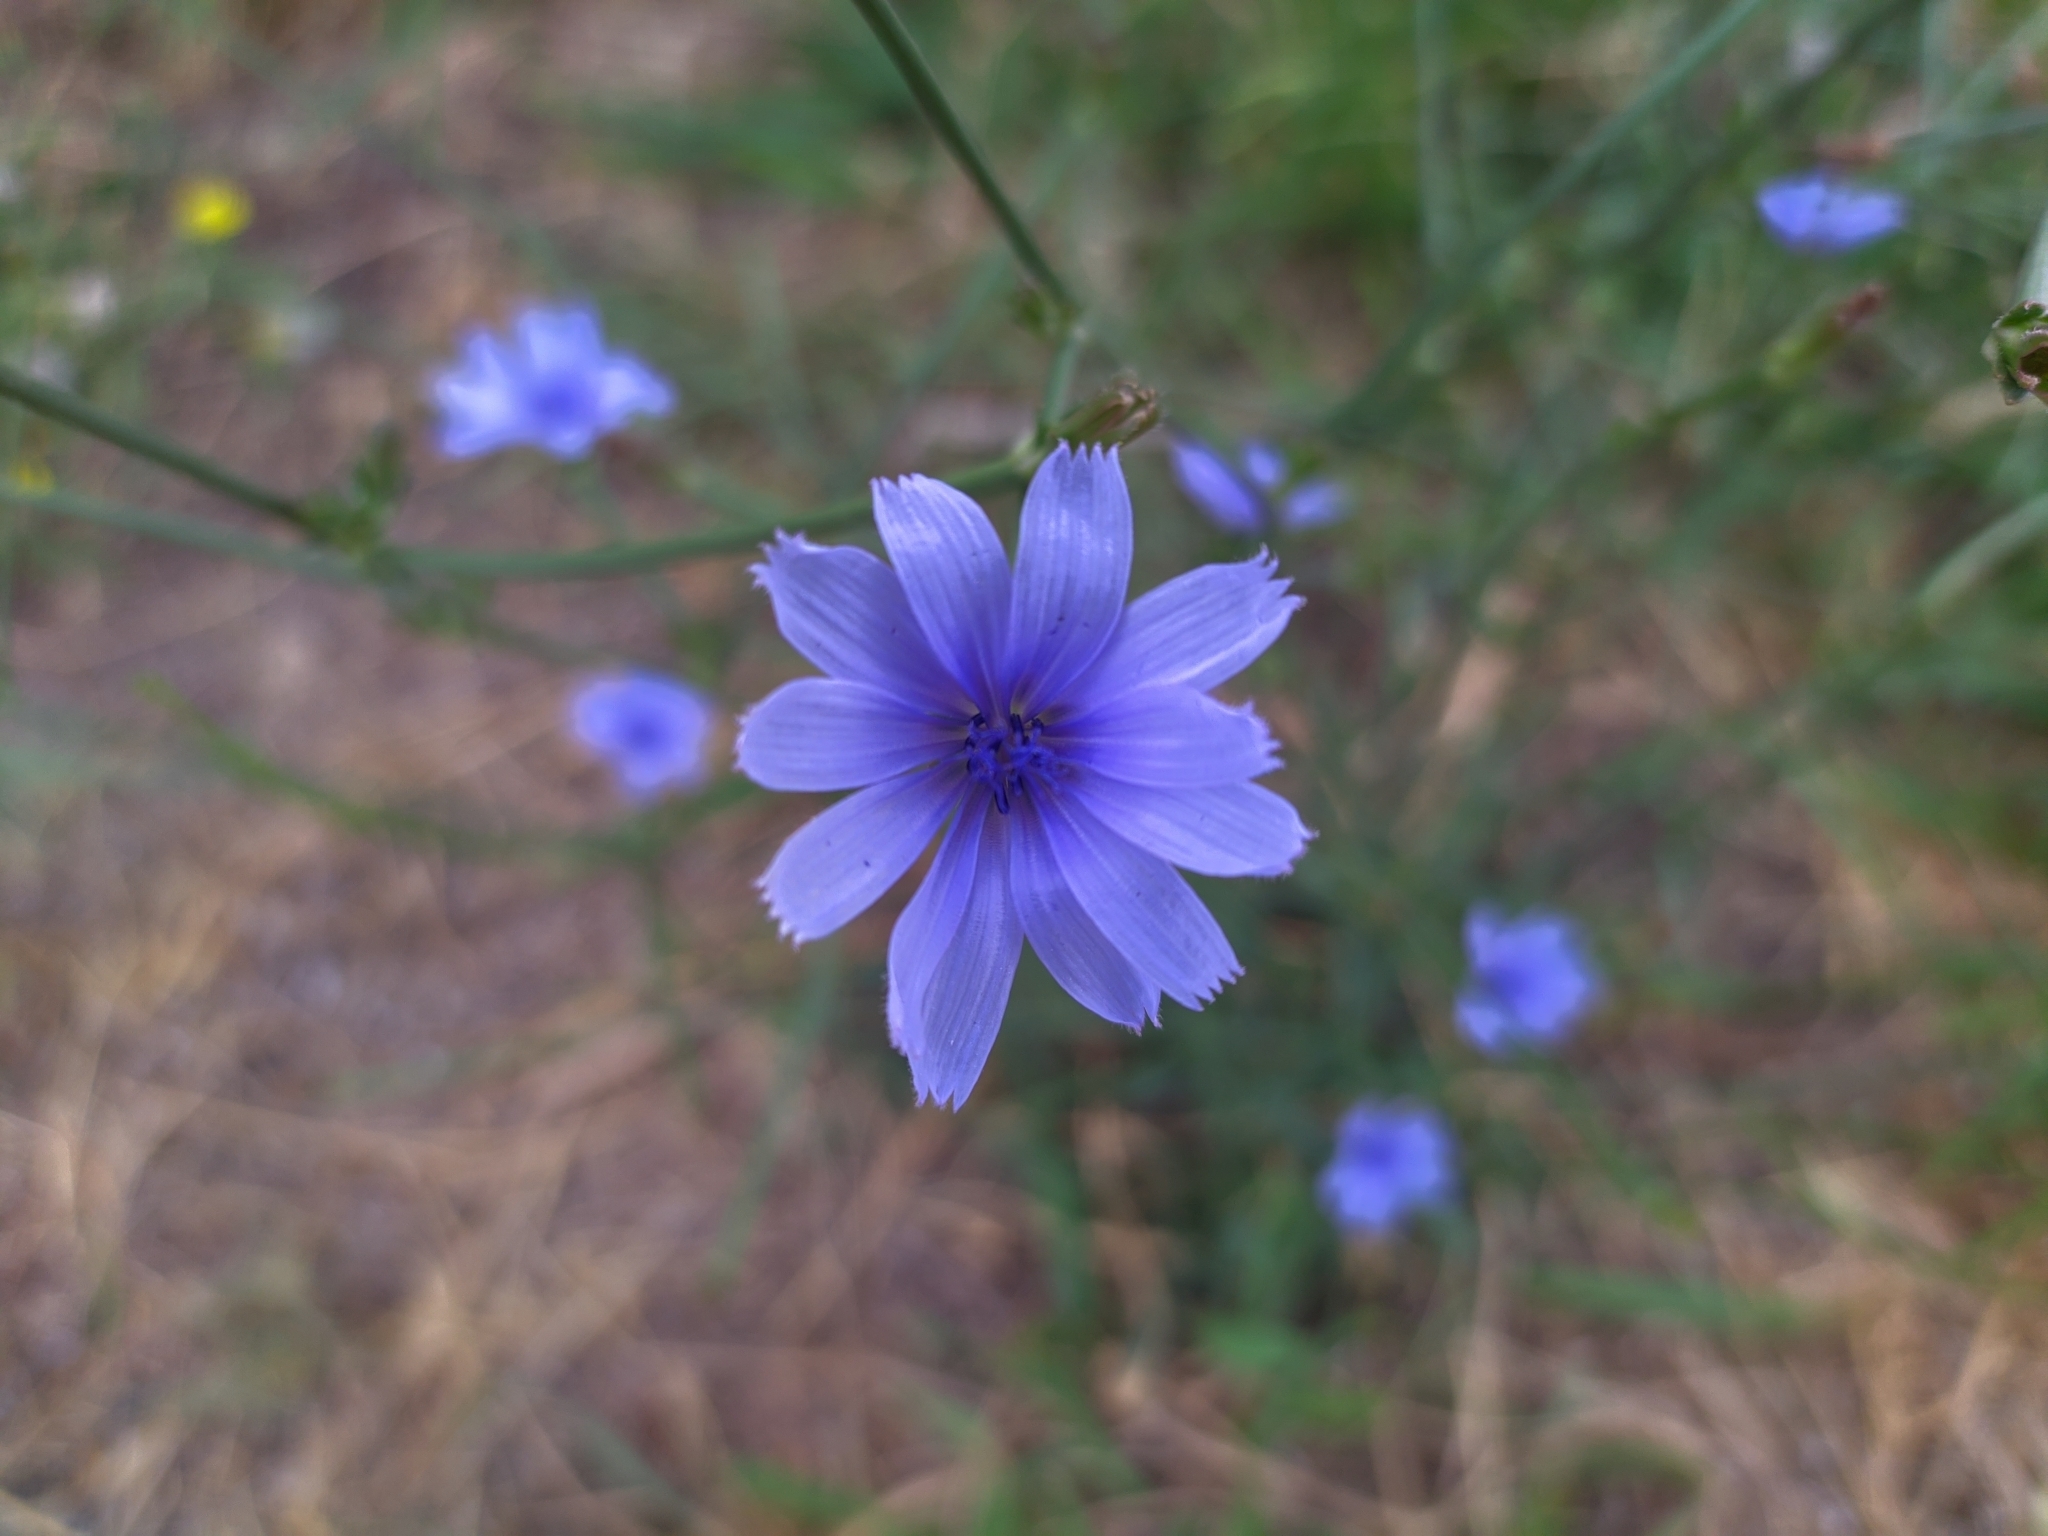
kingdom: Plantae
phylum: Tracheophyta
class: Magnoliopsida
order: Asterales
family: Asteraceae
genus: Cichorium
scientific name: Cichorium intybus
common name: Chicory
